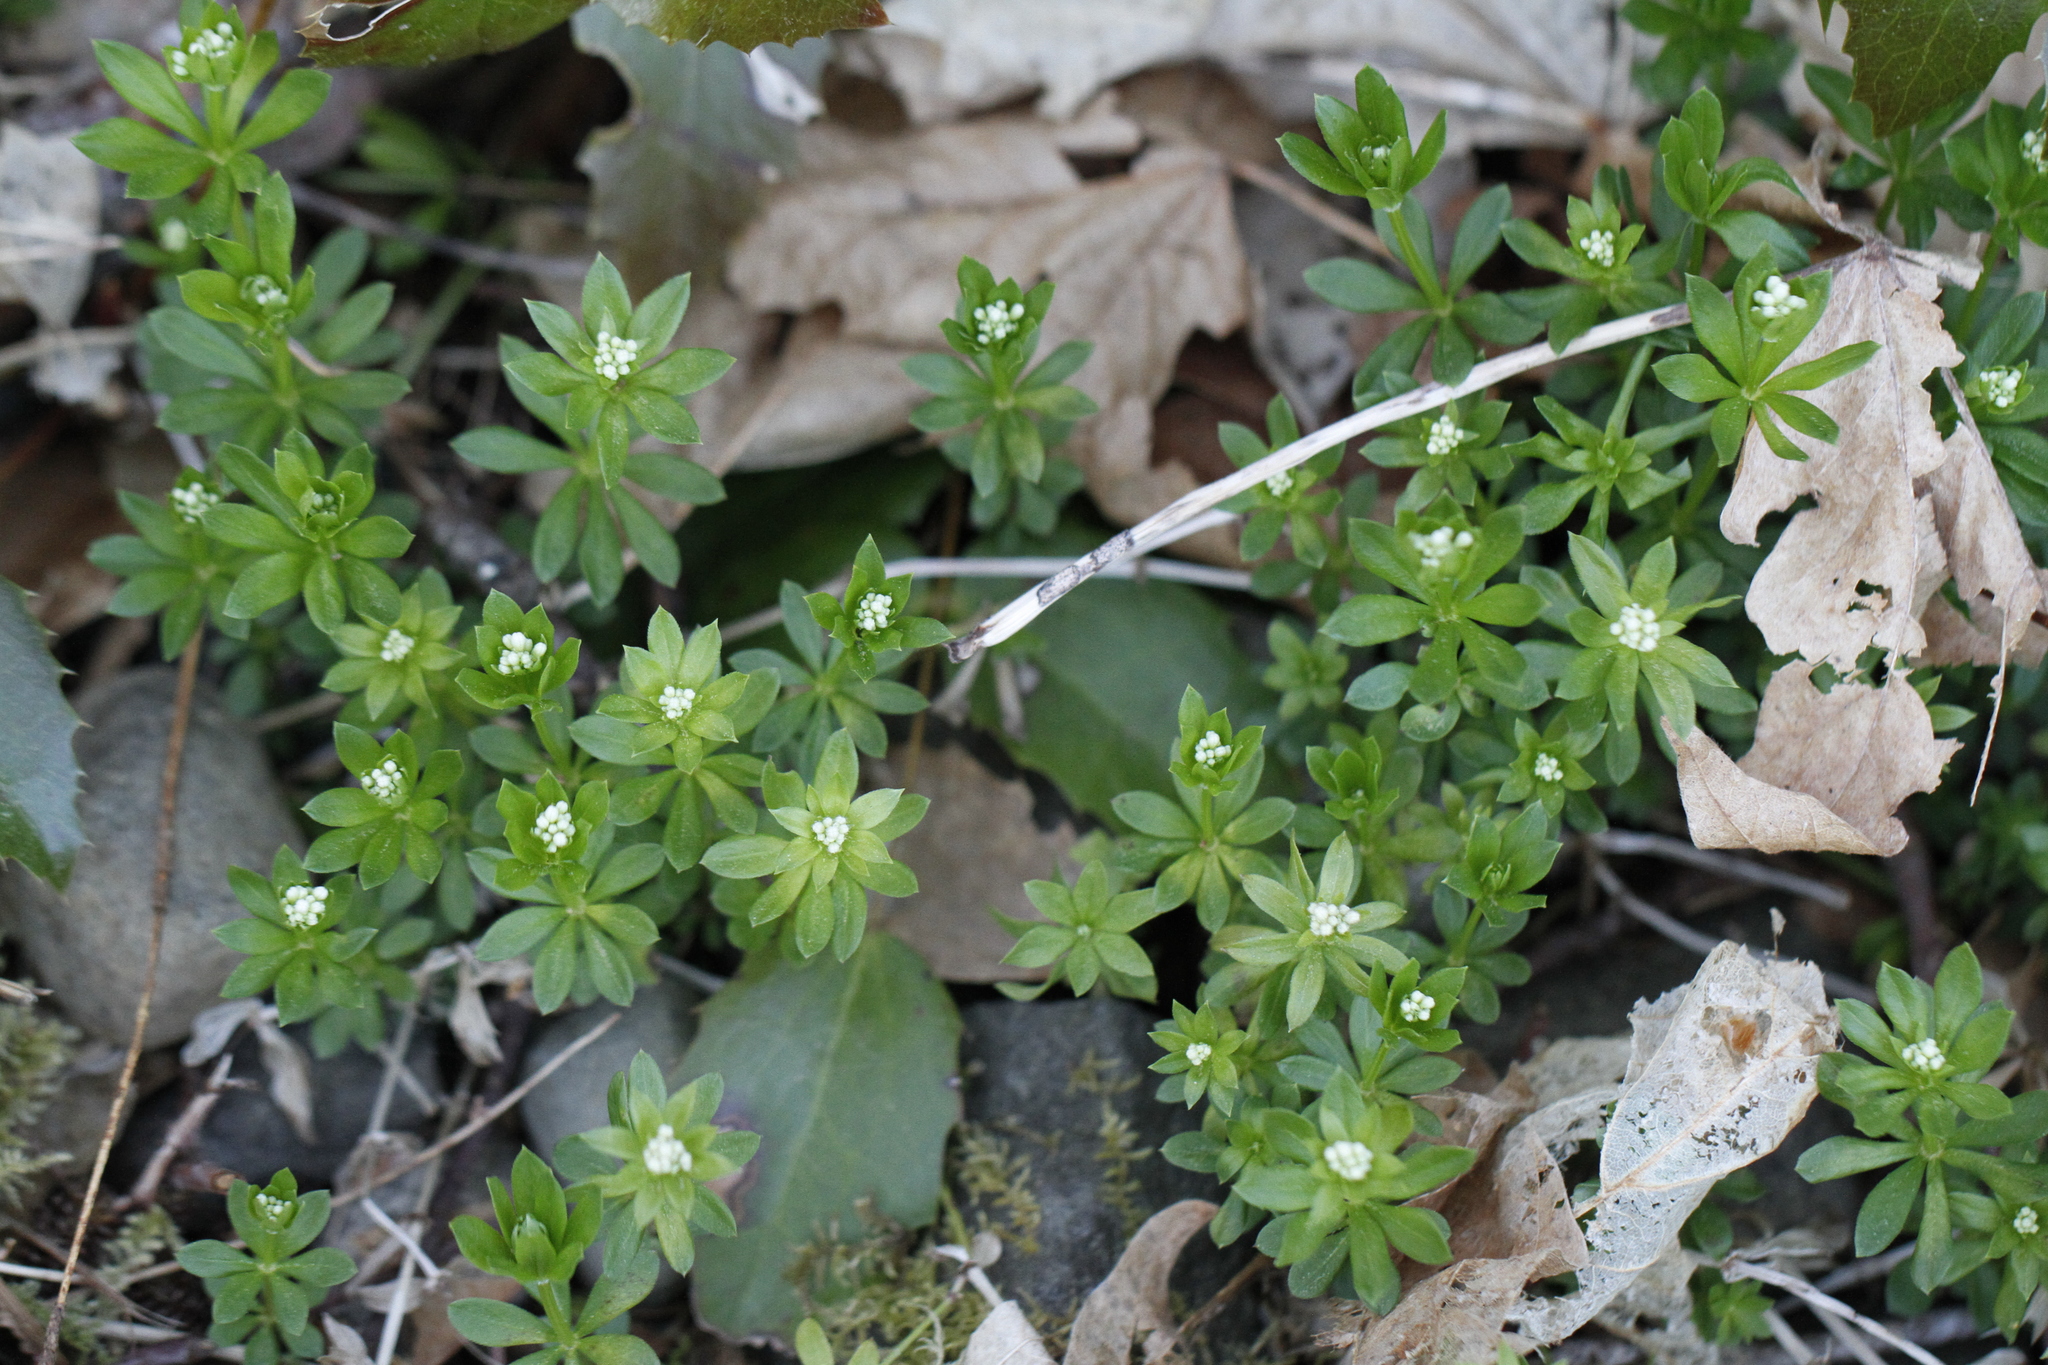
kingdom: Plantae
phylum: Tracheophyta
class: Magnoliopsida
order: Gentianales
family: Rubiaceae
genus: Galium
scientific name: Galium odoratum
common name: Sweet woodruff
